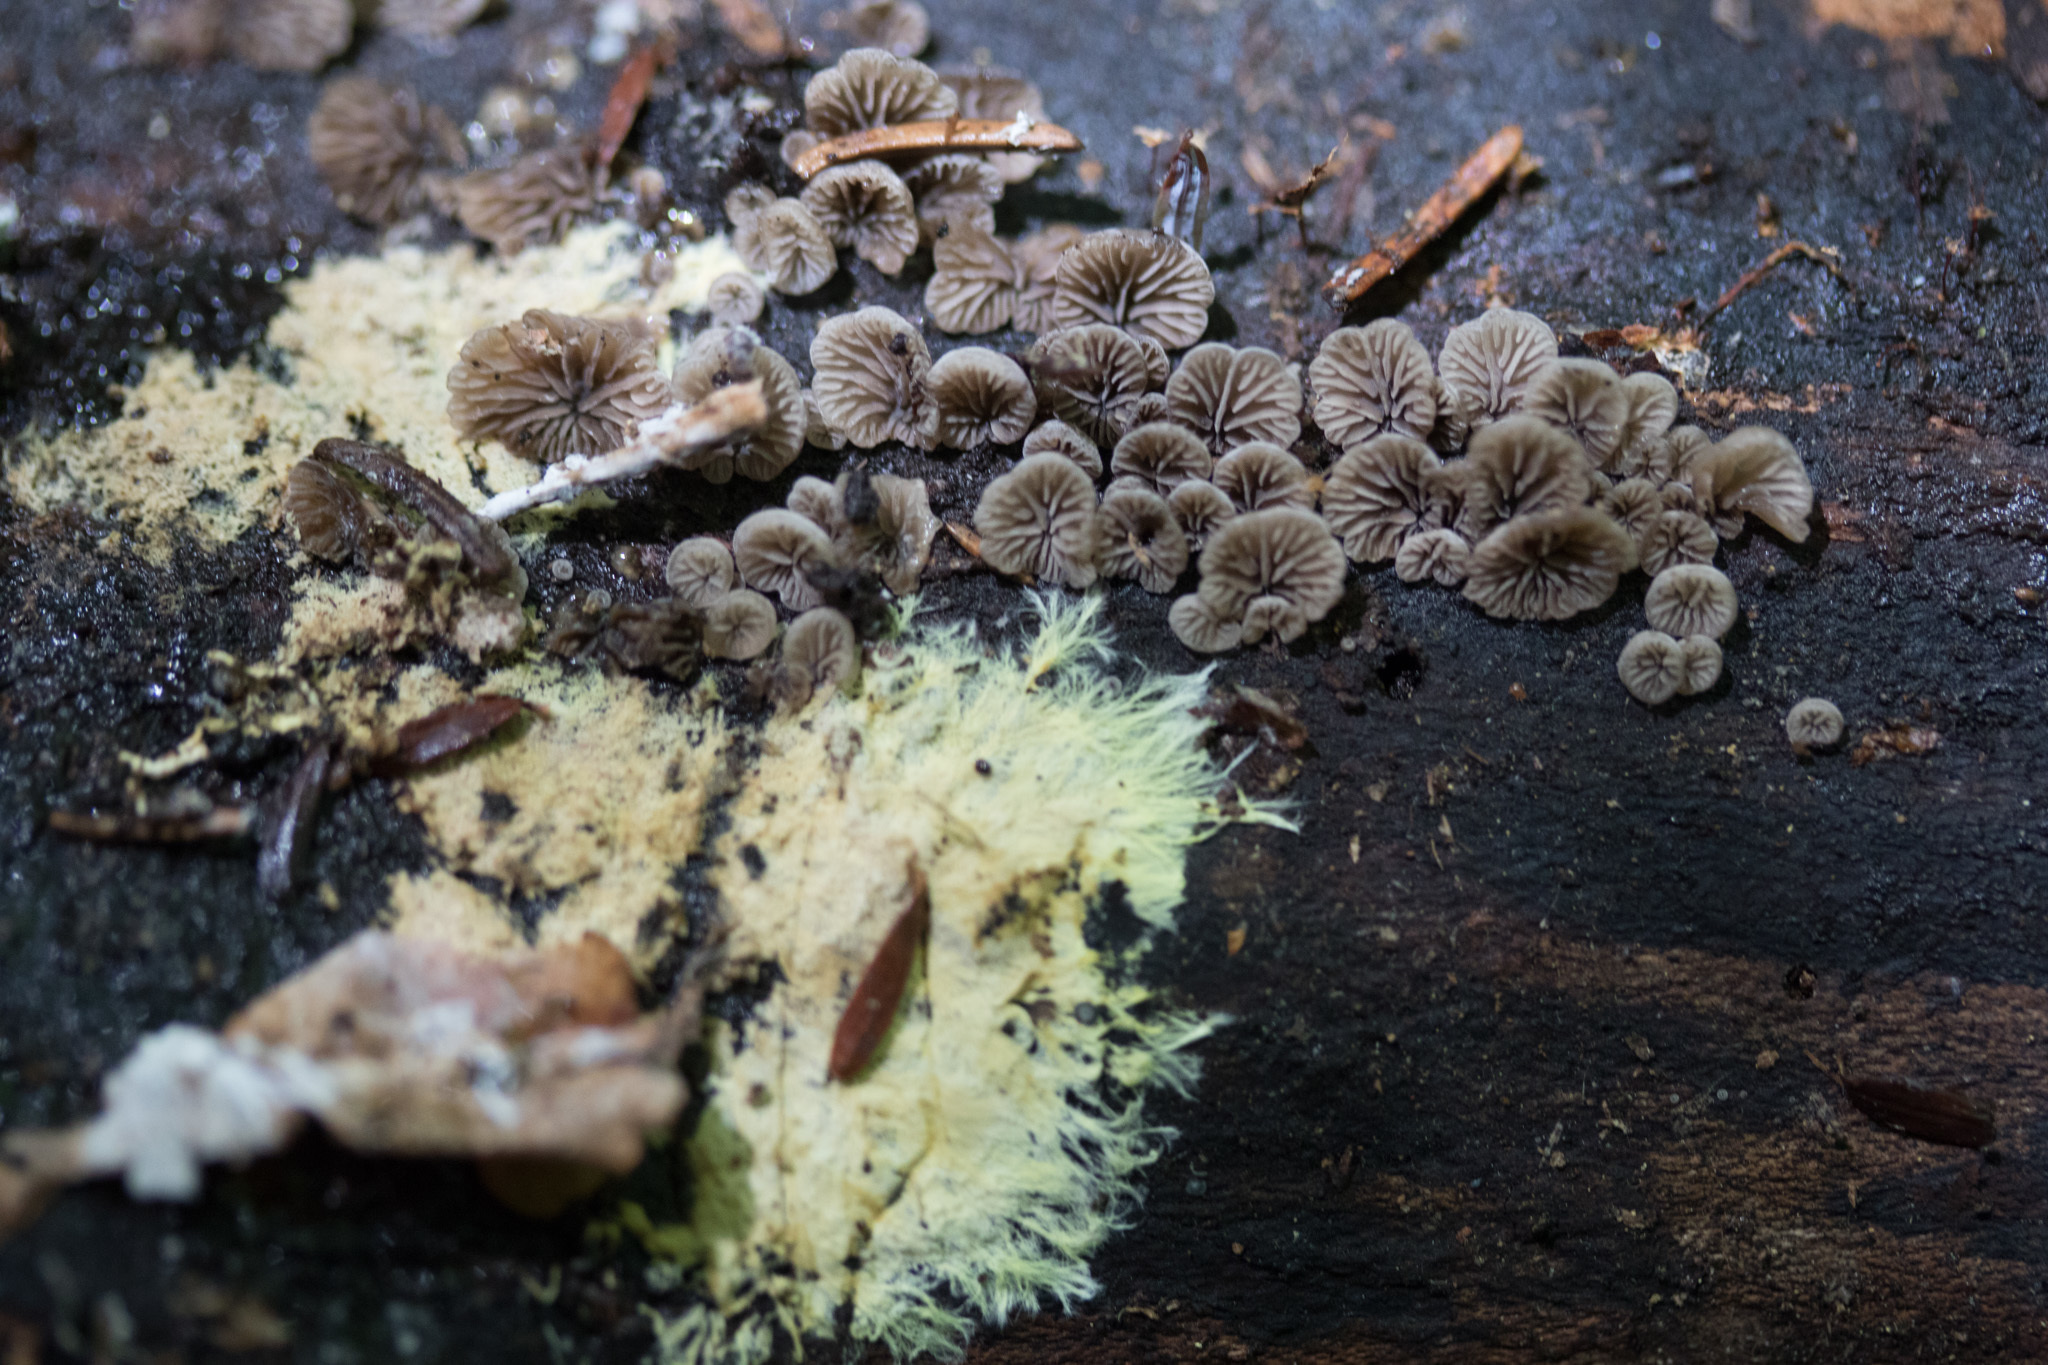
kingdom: Fungi
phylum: Basidiomycota
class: Agaricomycetes
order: Agaricales
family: Pleurotaceae
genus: Resupinatus
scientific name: Resupinatus applicatus
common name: Smoked oysterling
